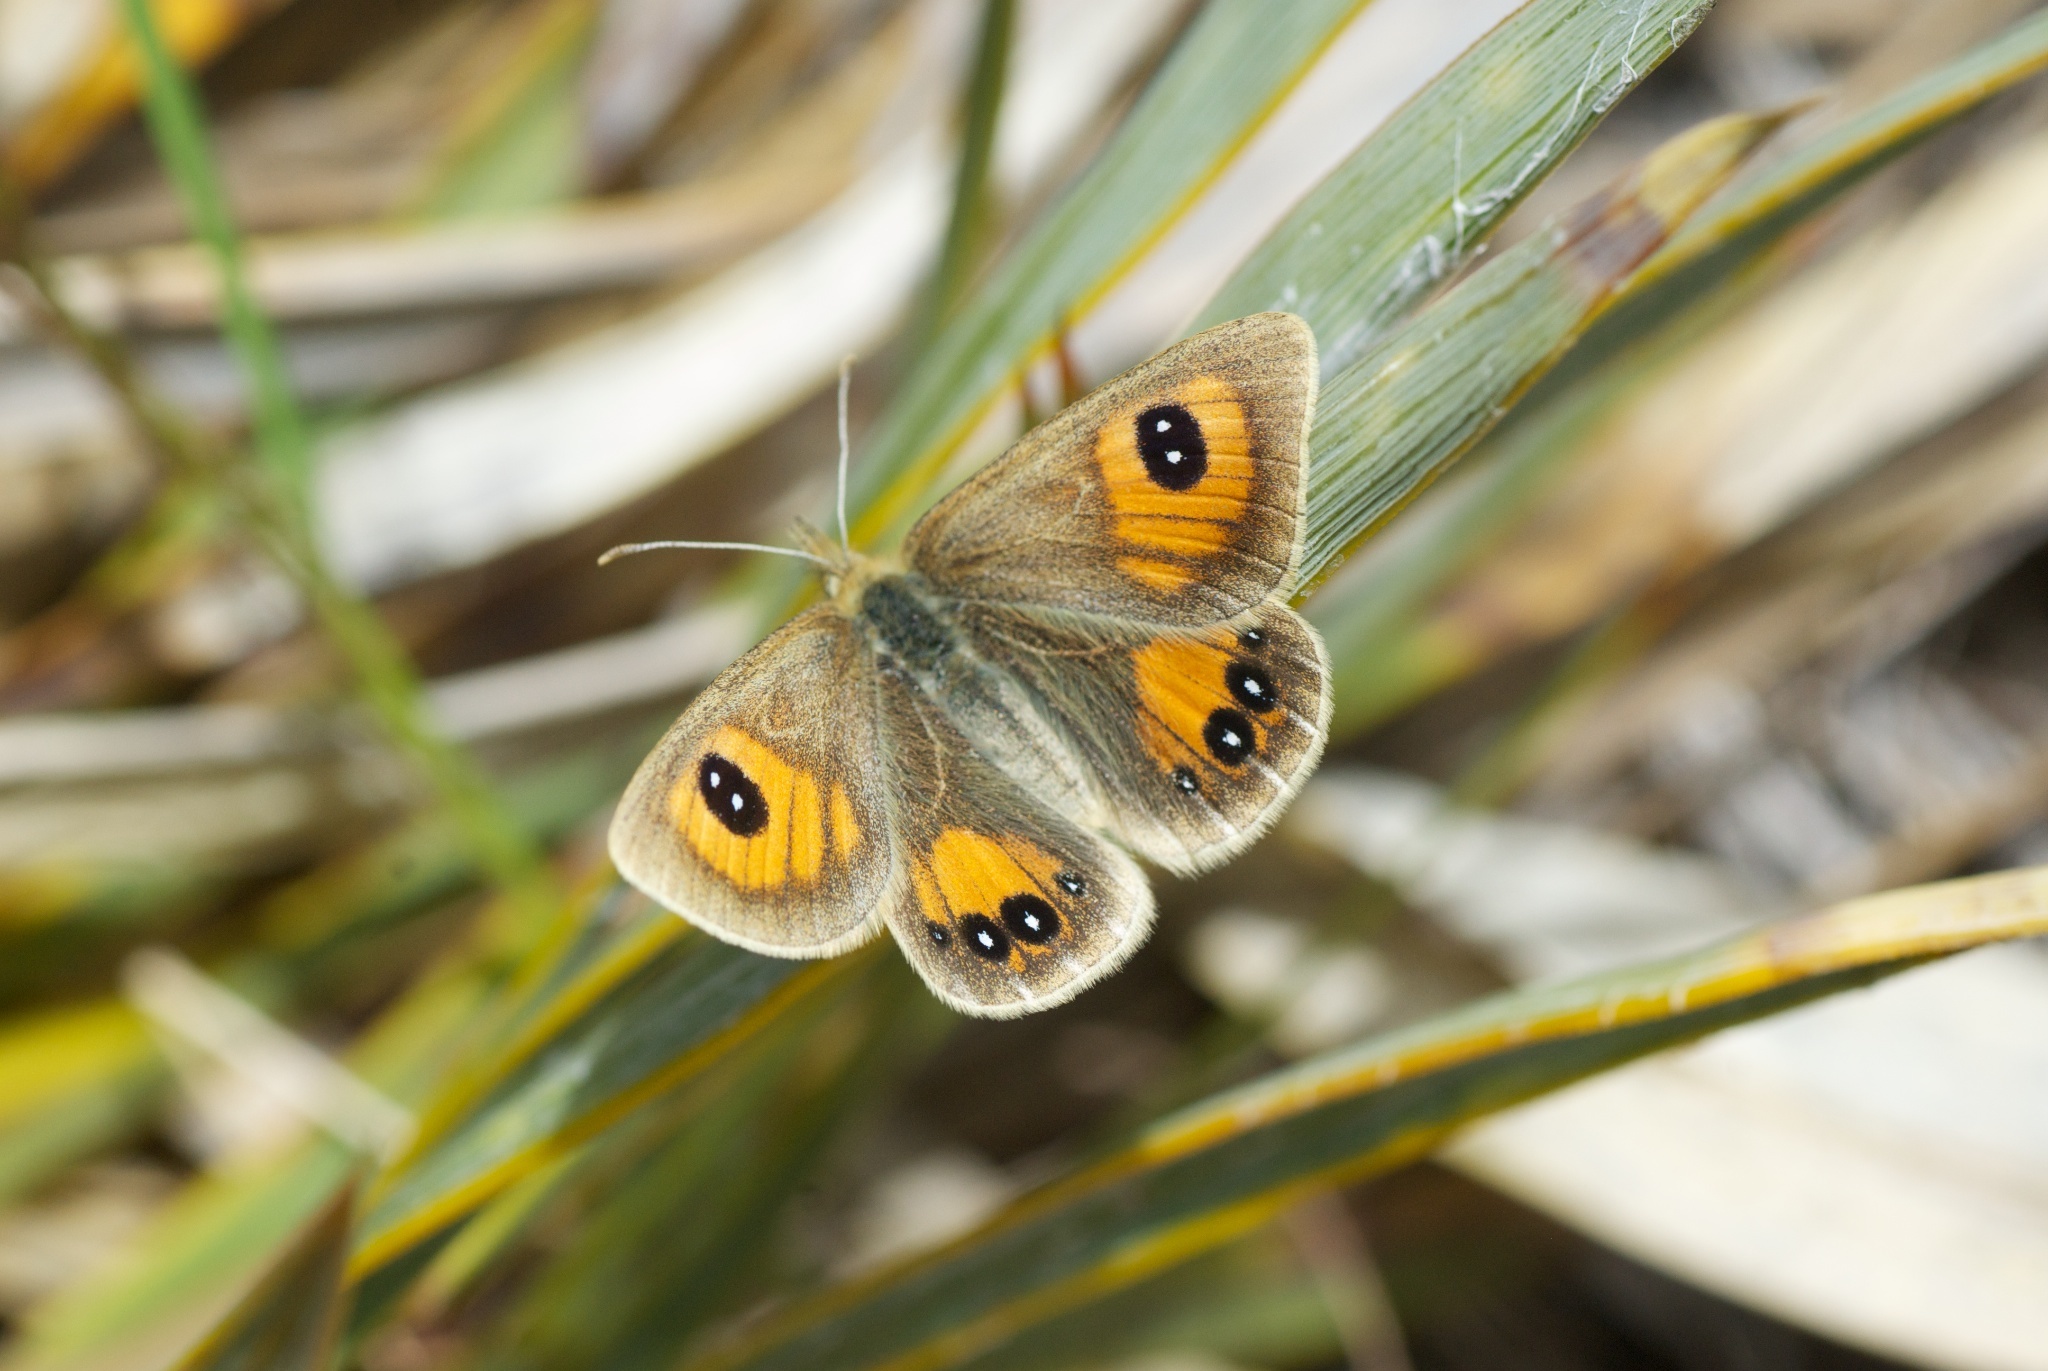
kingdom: Animalia
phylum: Arthropoda
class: Insecta
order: Lepidoptera
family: Nymphalidae
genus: Argyrophenga
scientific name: Argyrophenga janitae
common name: Janita's tussock
